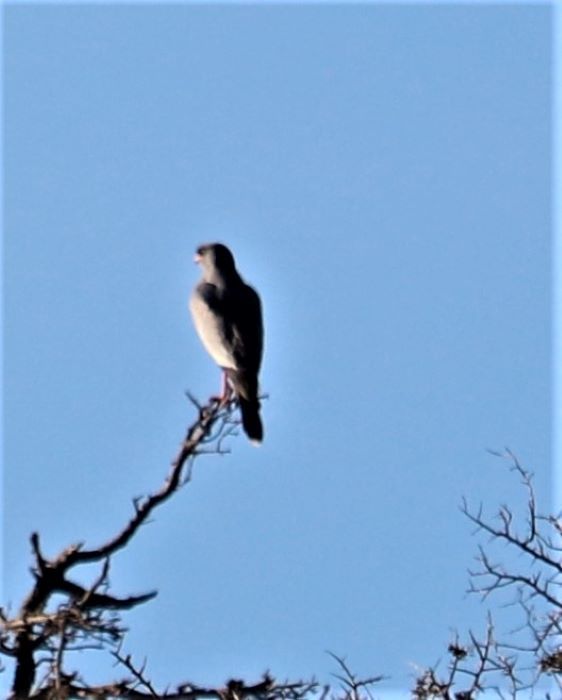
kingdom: Animalia
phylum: Chordata
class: Aves
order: Accipitriformes
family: Accipitridae
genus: Melierax
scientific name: Melierax canorus
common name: Pale chanting-goshawk
